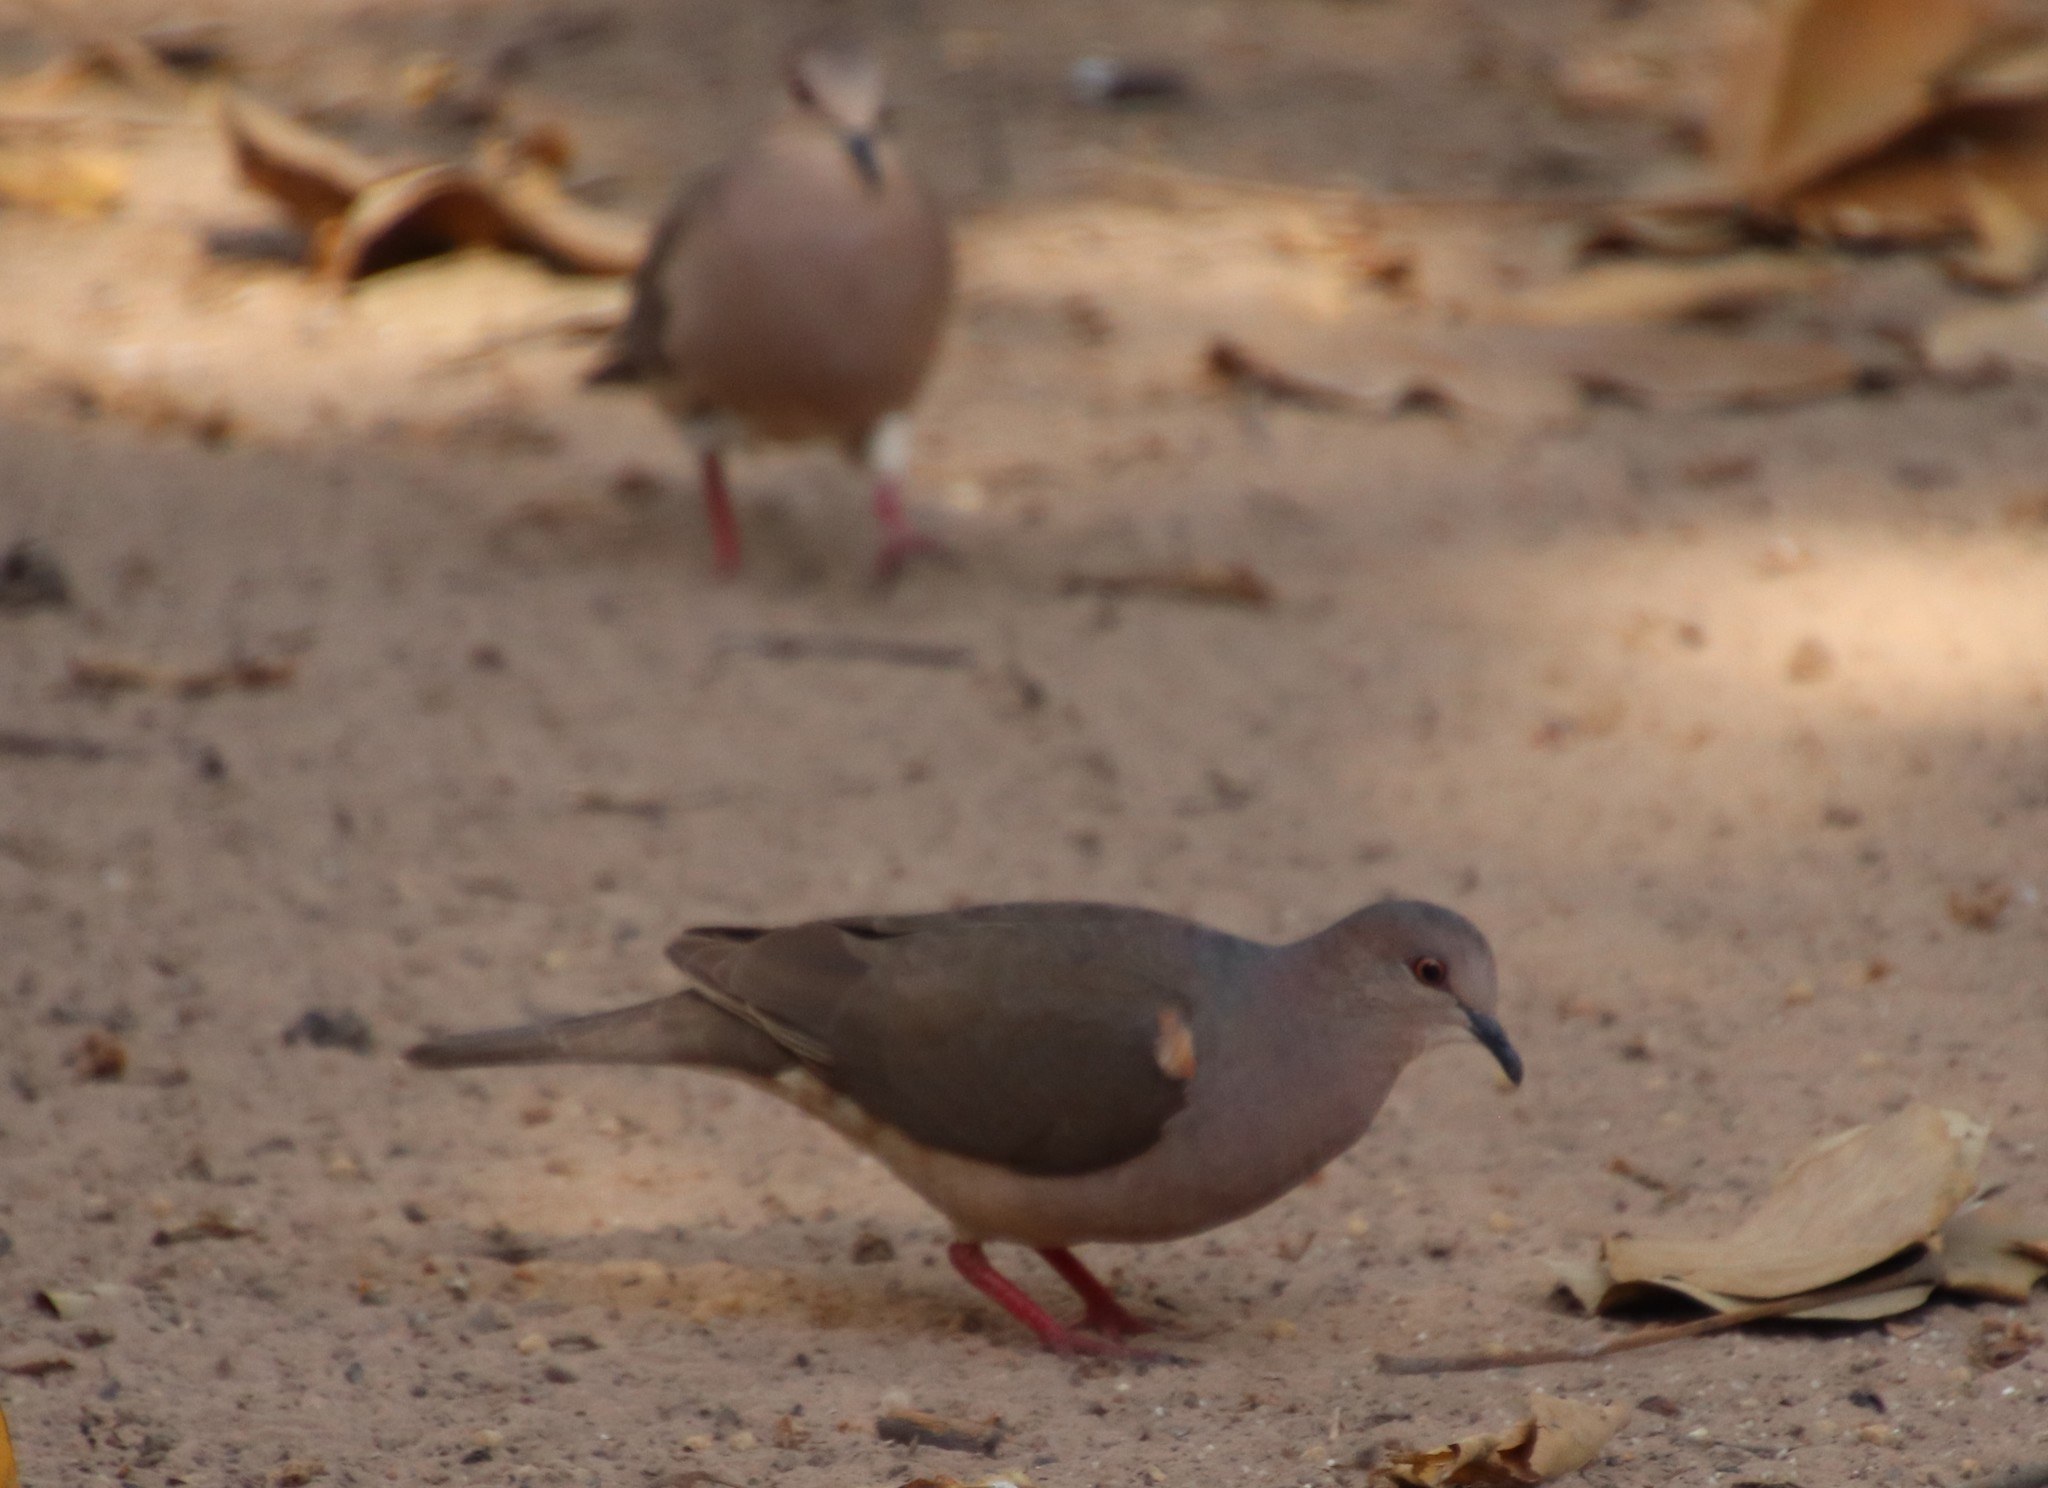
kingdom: Animalia
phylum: Chordata
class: Aves
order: Columbiformes
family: Columbidae
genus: Leptotila
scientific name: Leptotila verreauxi
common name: White-tipped dove
